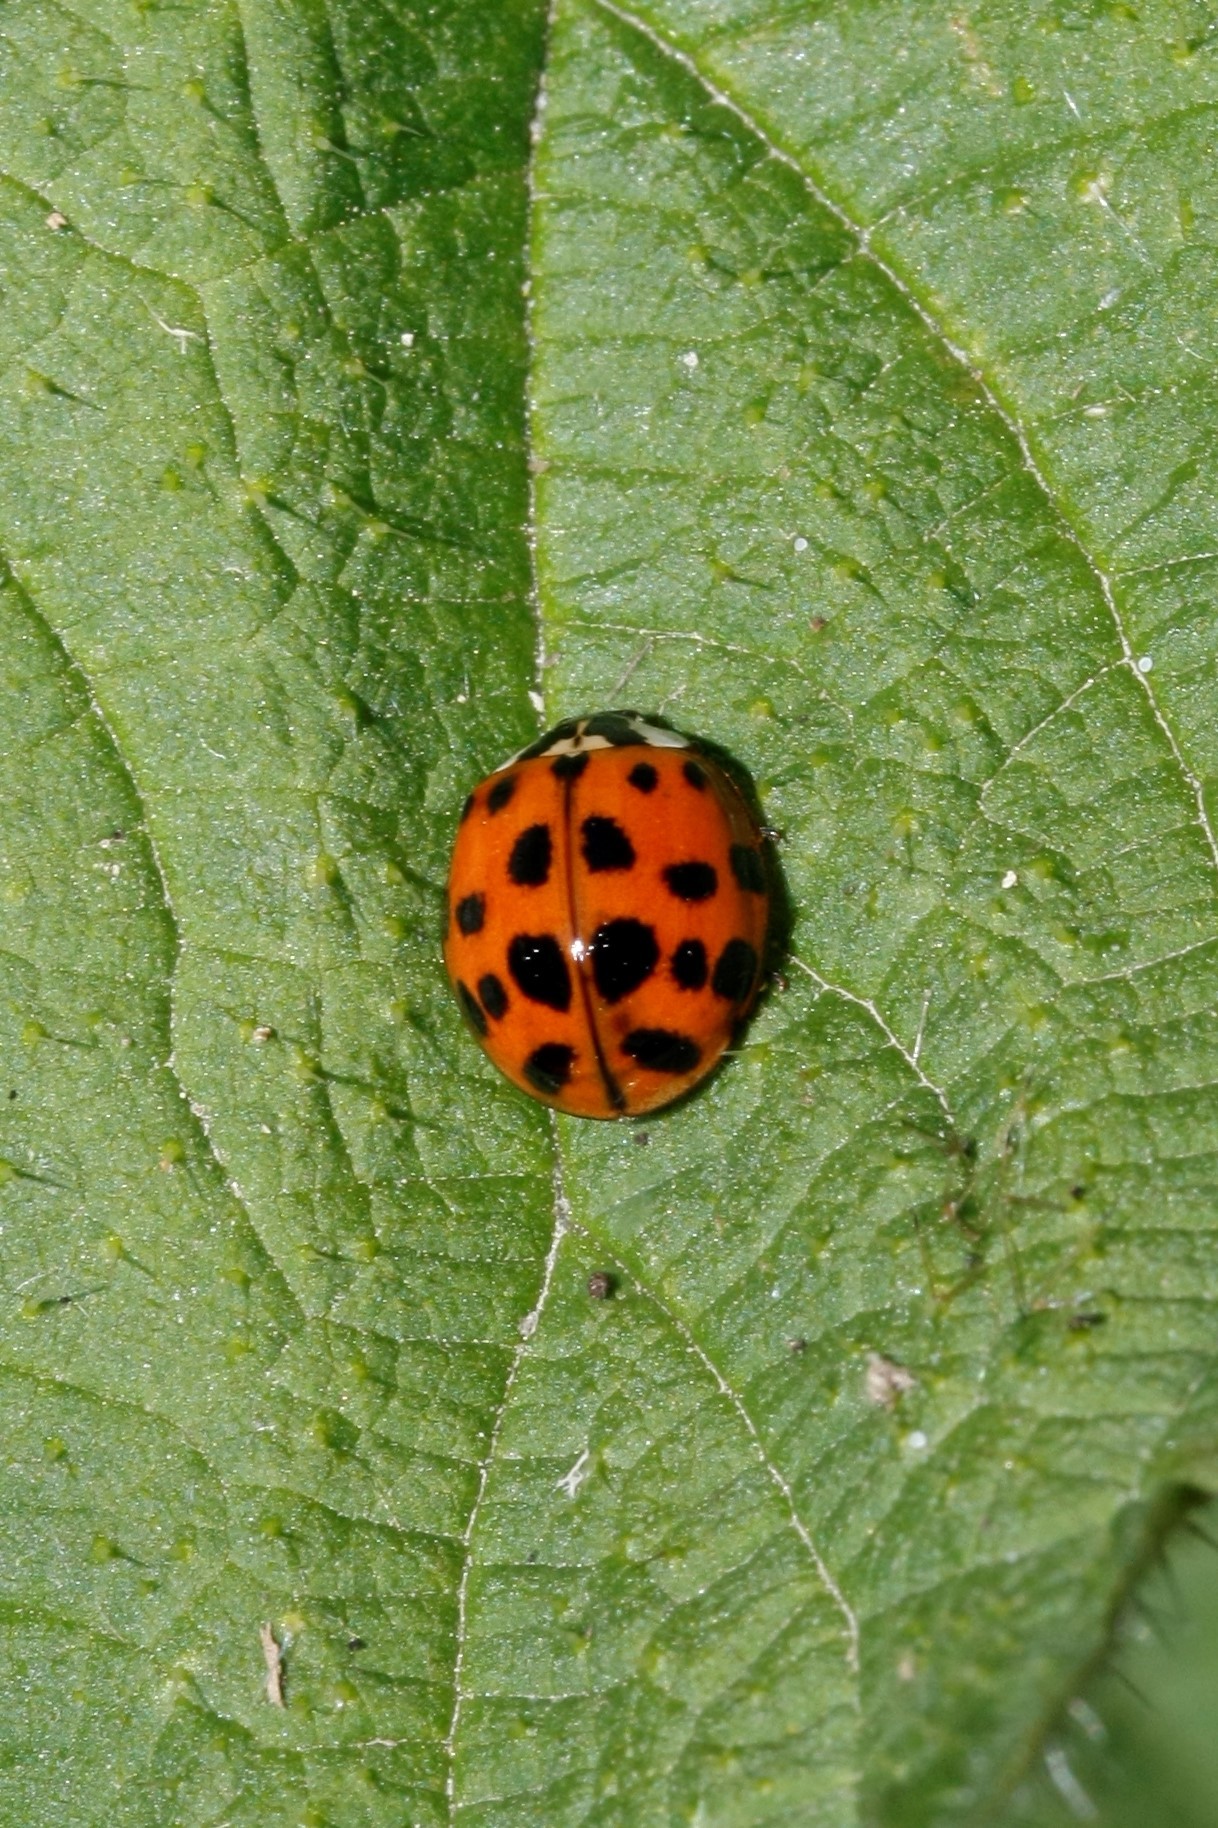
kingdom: Animalia
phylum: Arthropoda
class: Insecta
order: Coleoptera
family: Coccinellidae
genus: Harmonia
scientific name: Harmonia axyridis
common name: Harlequin ladybird
